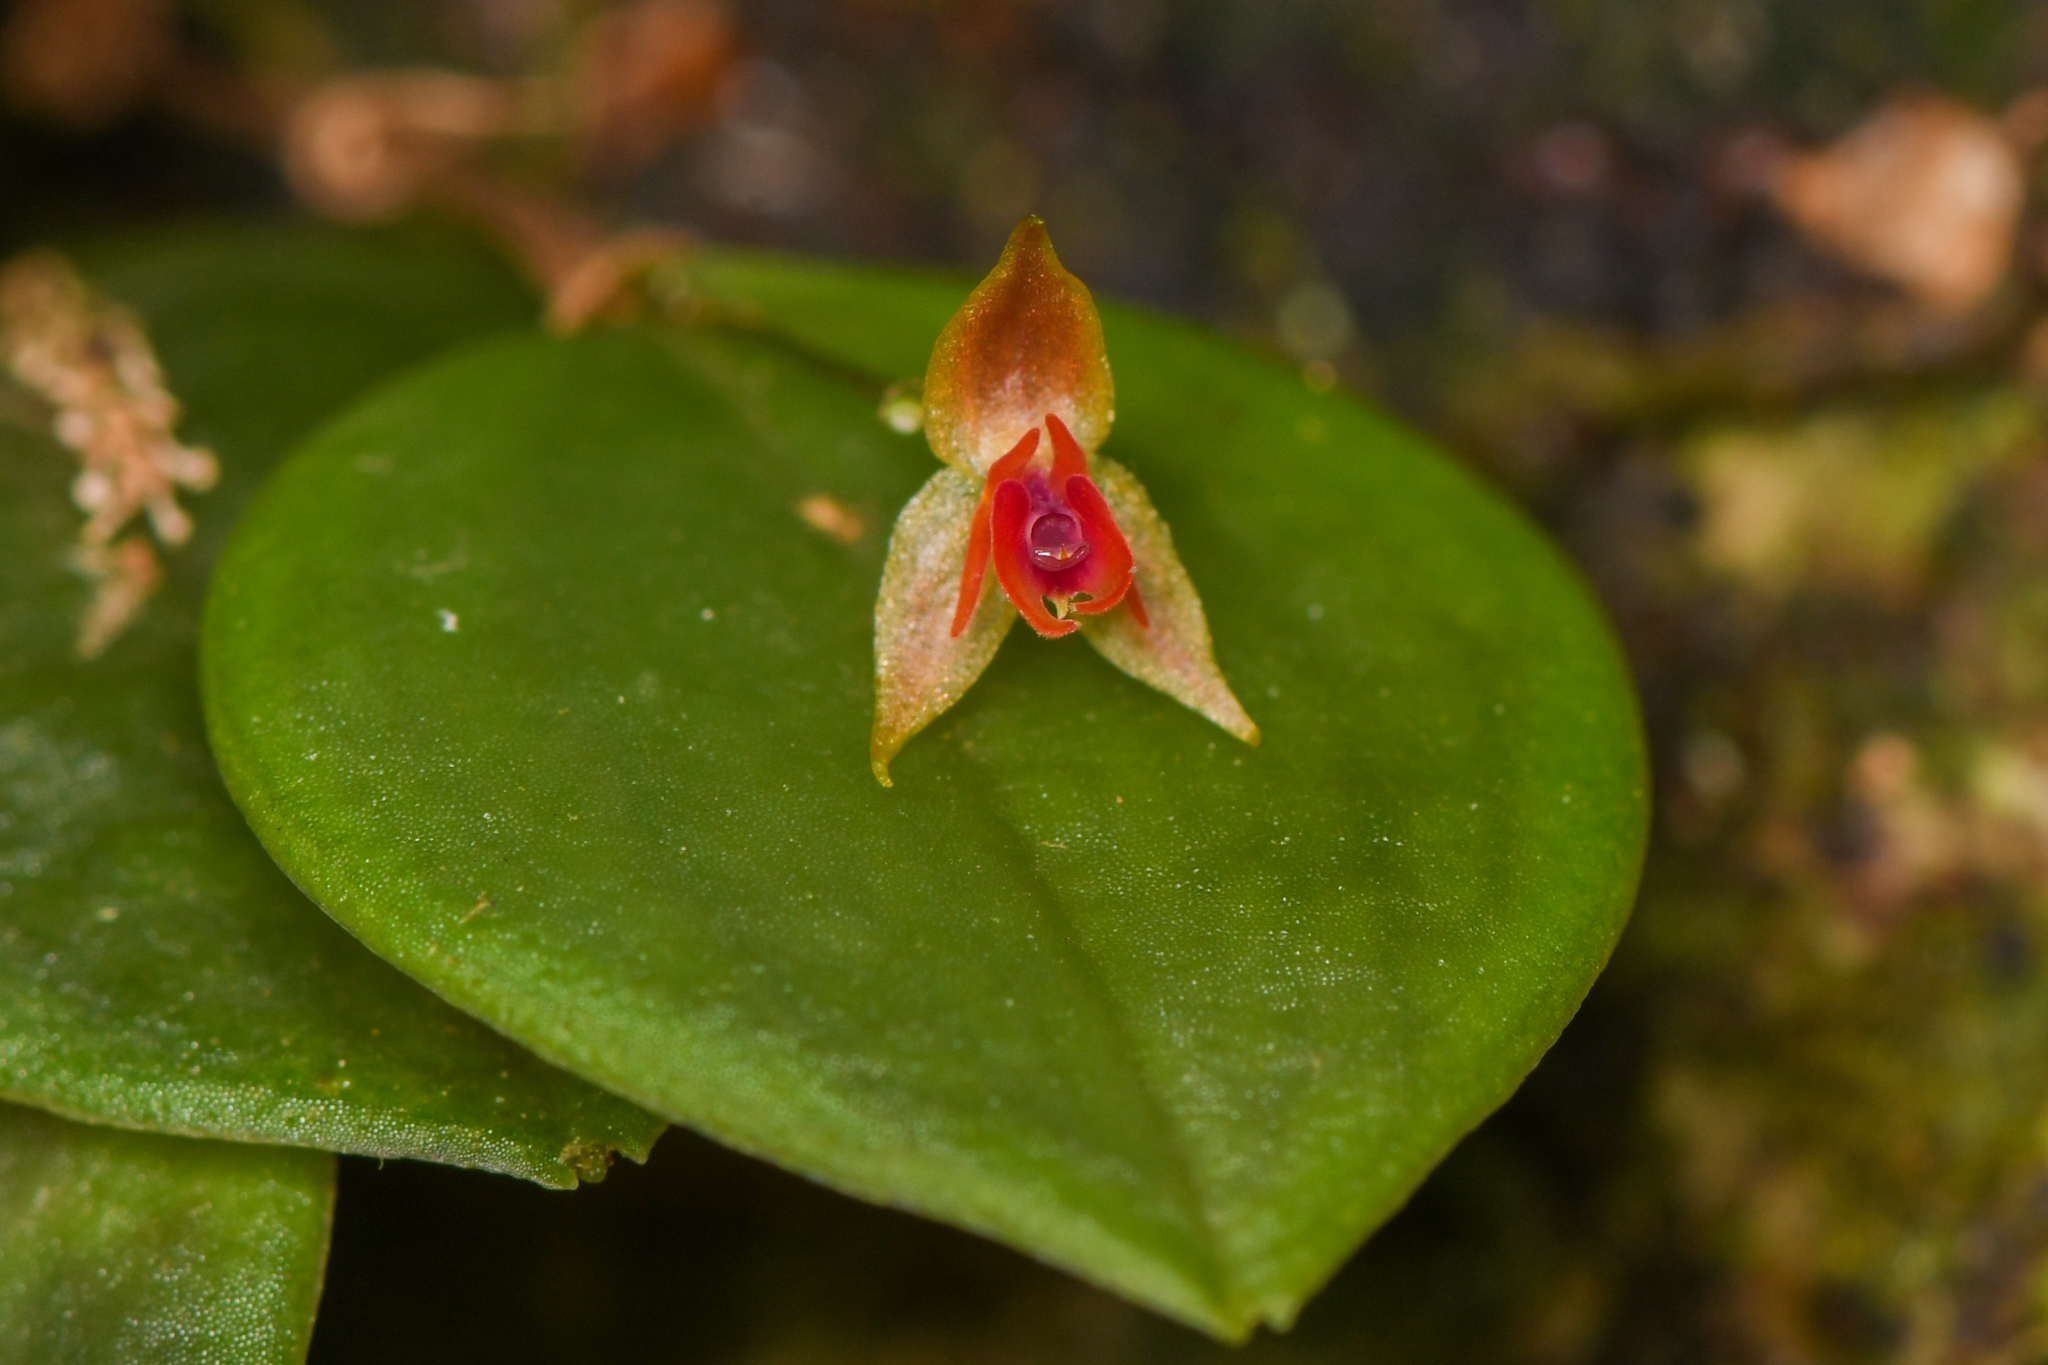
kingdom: Plantae
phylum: Tracheophyta
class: Liliopsida
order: Asparagales
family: Orchidaceae
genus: Lepanthes
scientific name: Lepanthes monteverdensis
